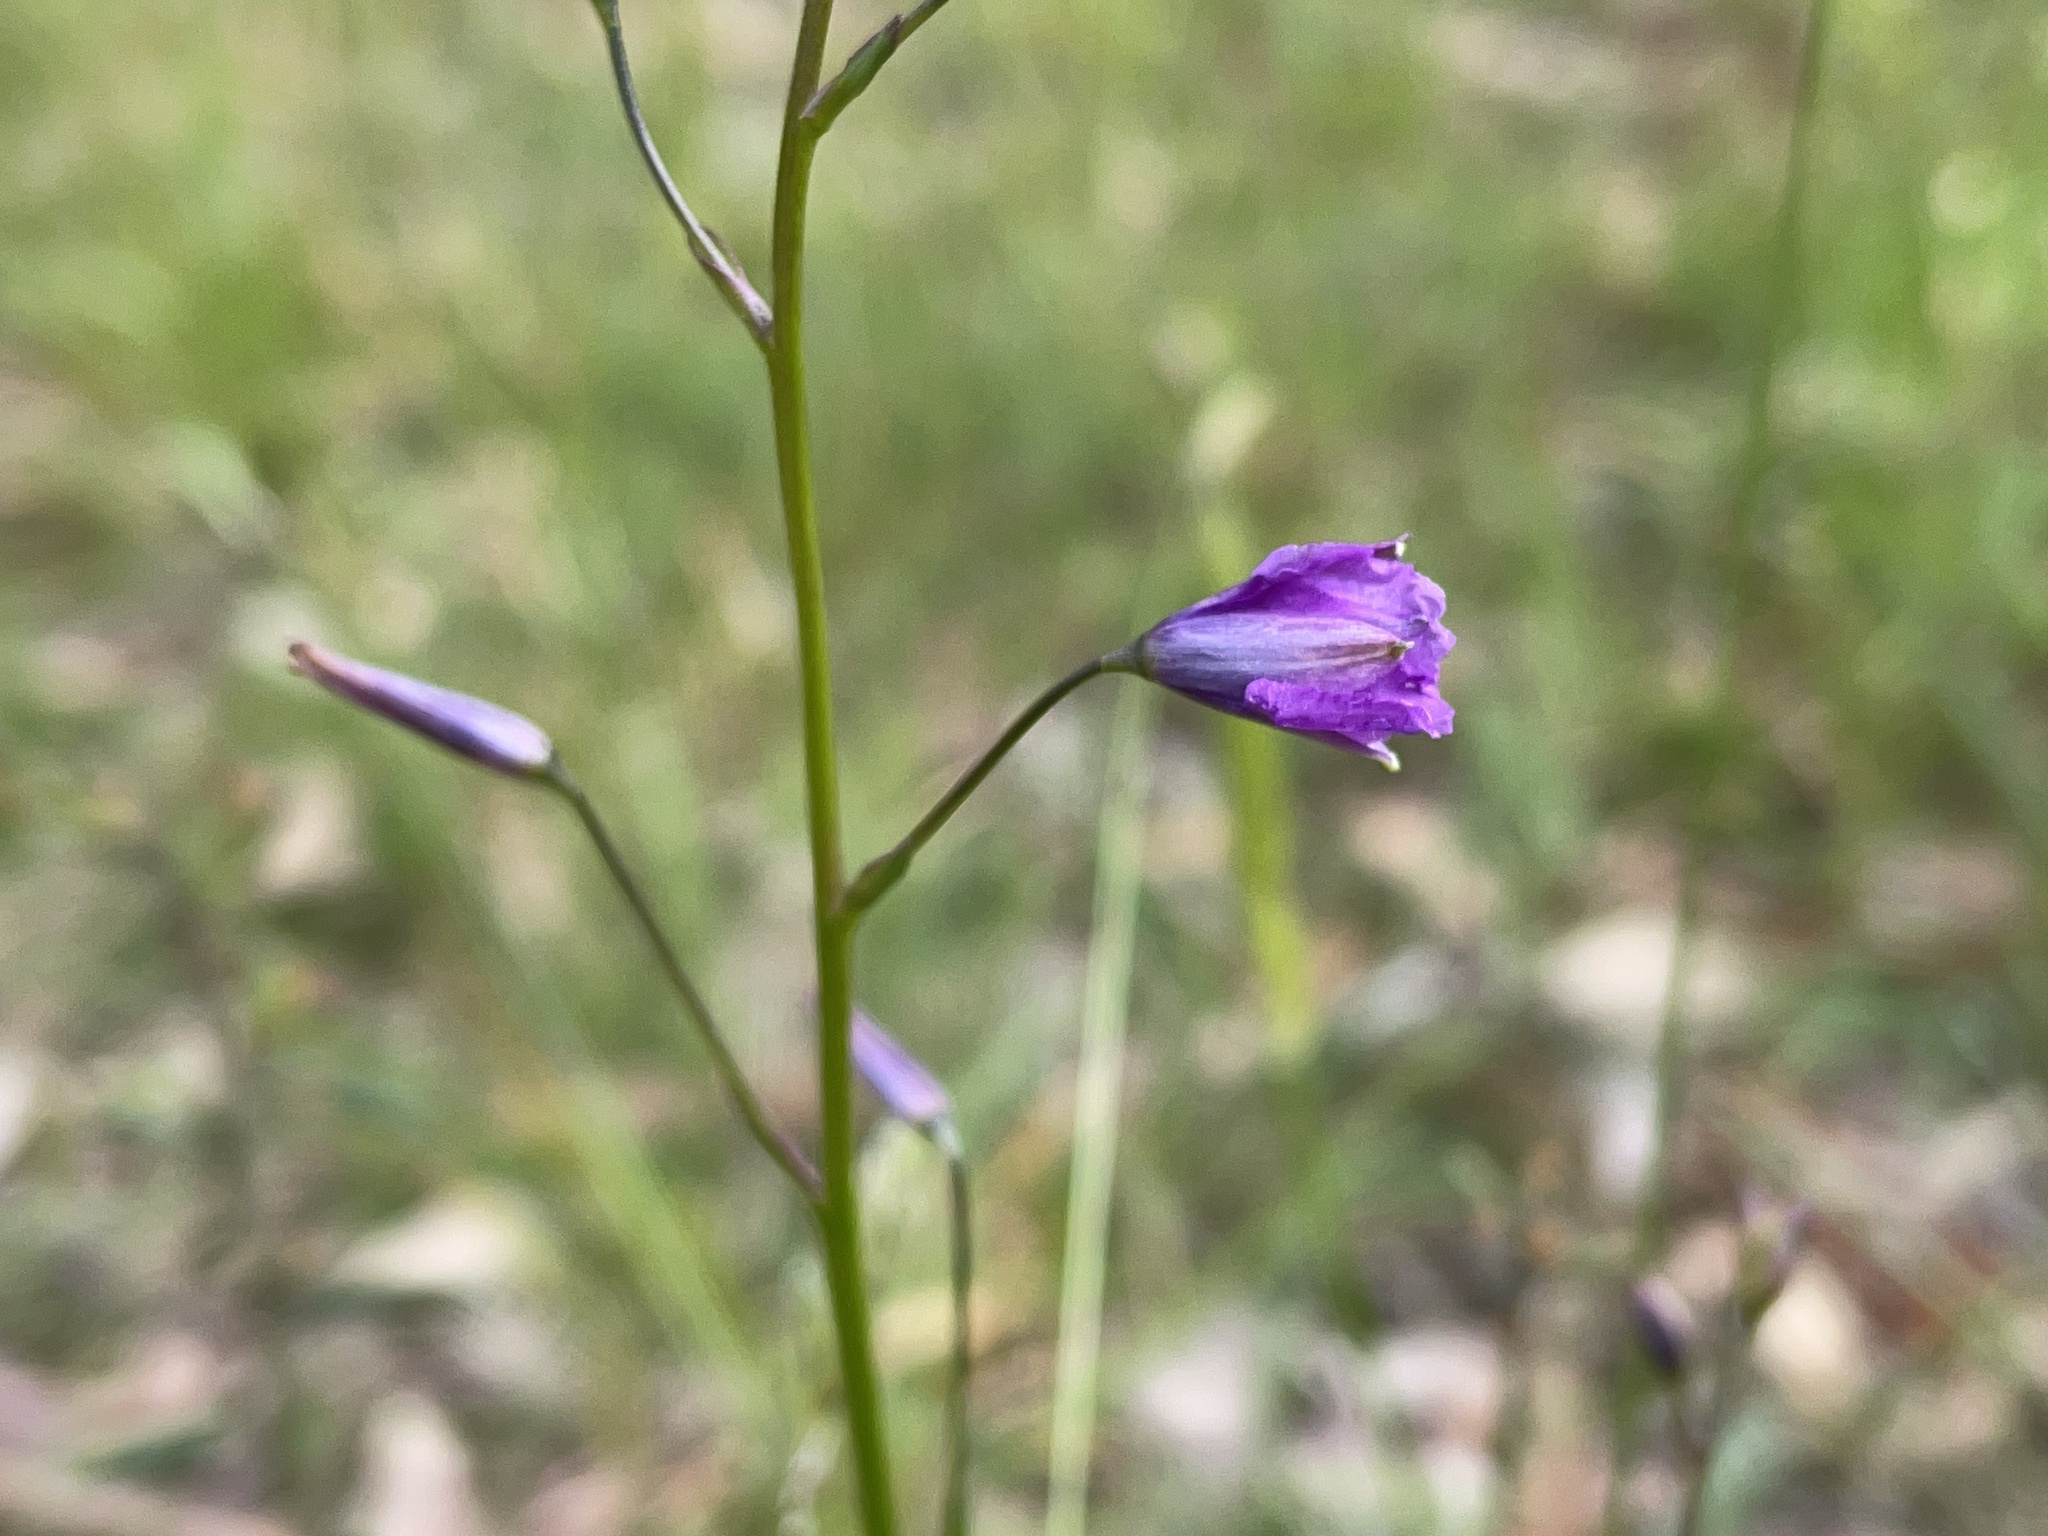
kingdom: Plantae
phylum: Tracheophyta
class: Liliopsida
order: Asparagales
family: Asparagaceae
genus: Arthropodium
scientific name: Arthropodium strictum
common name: Chocolate-lily
